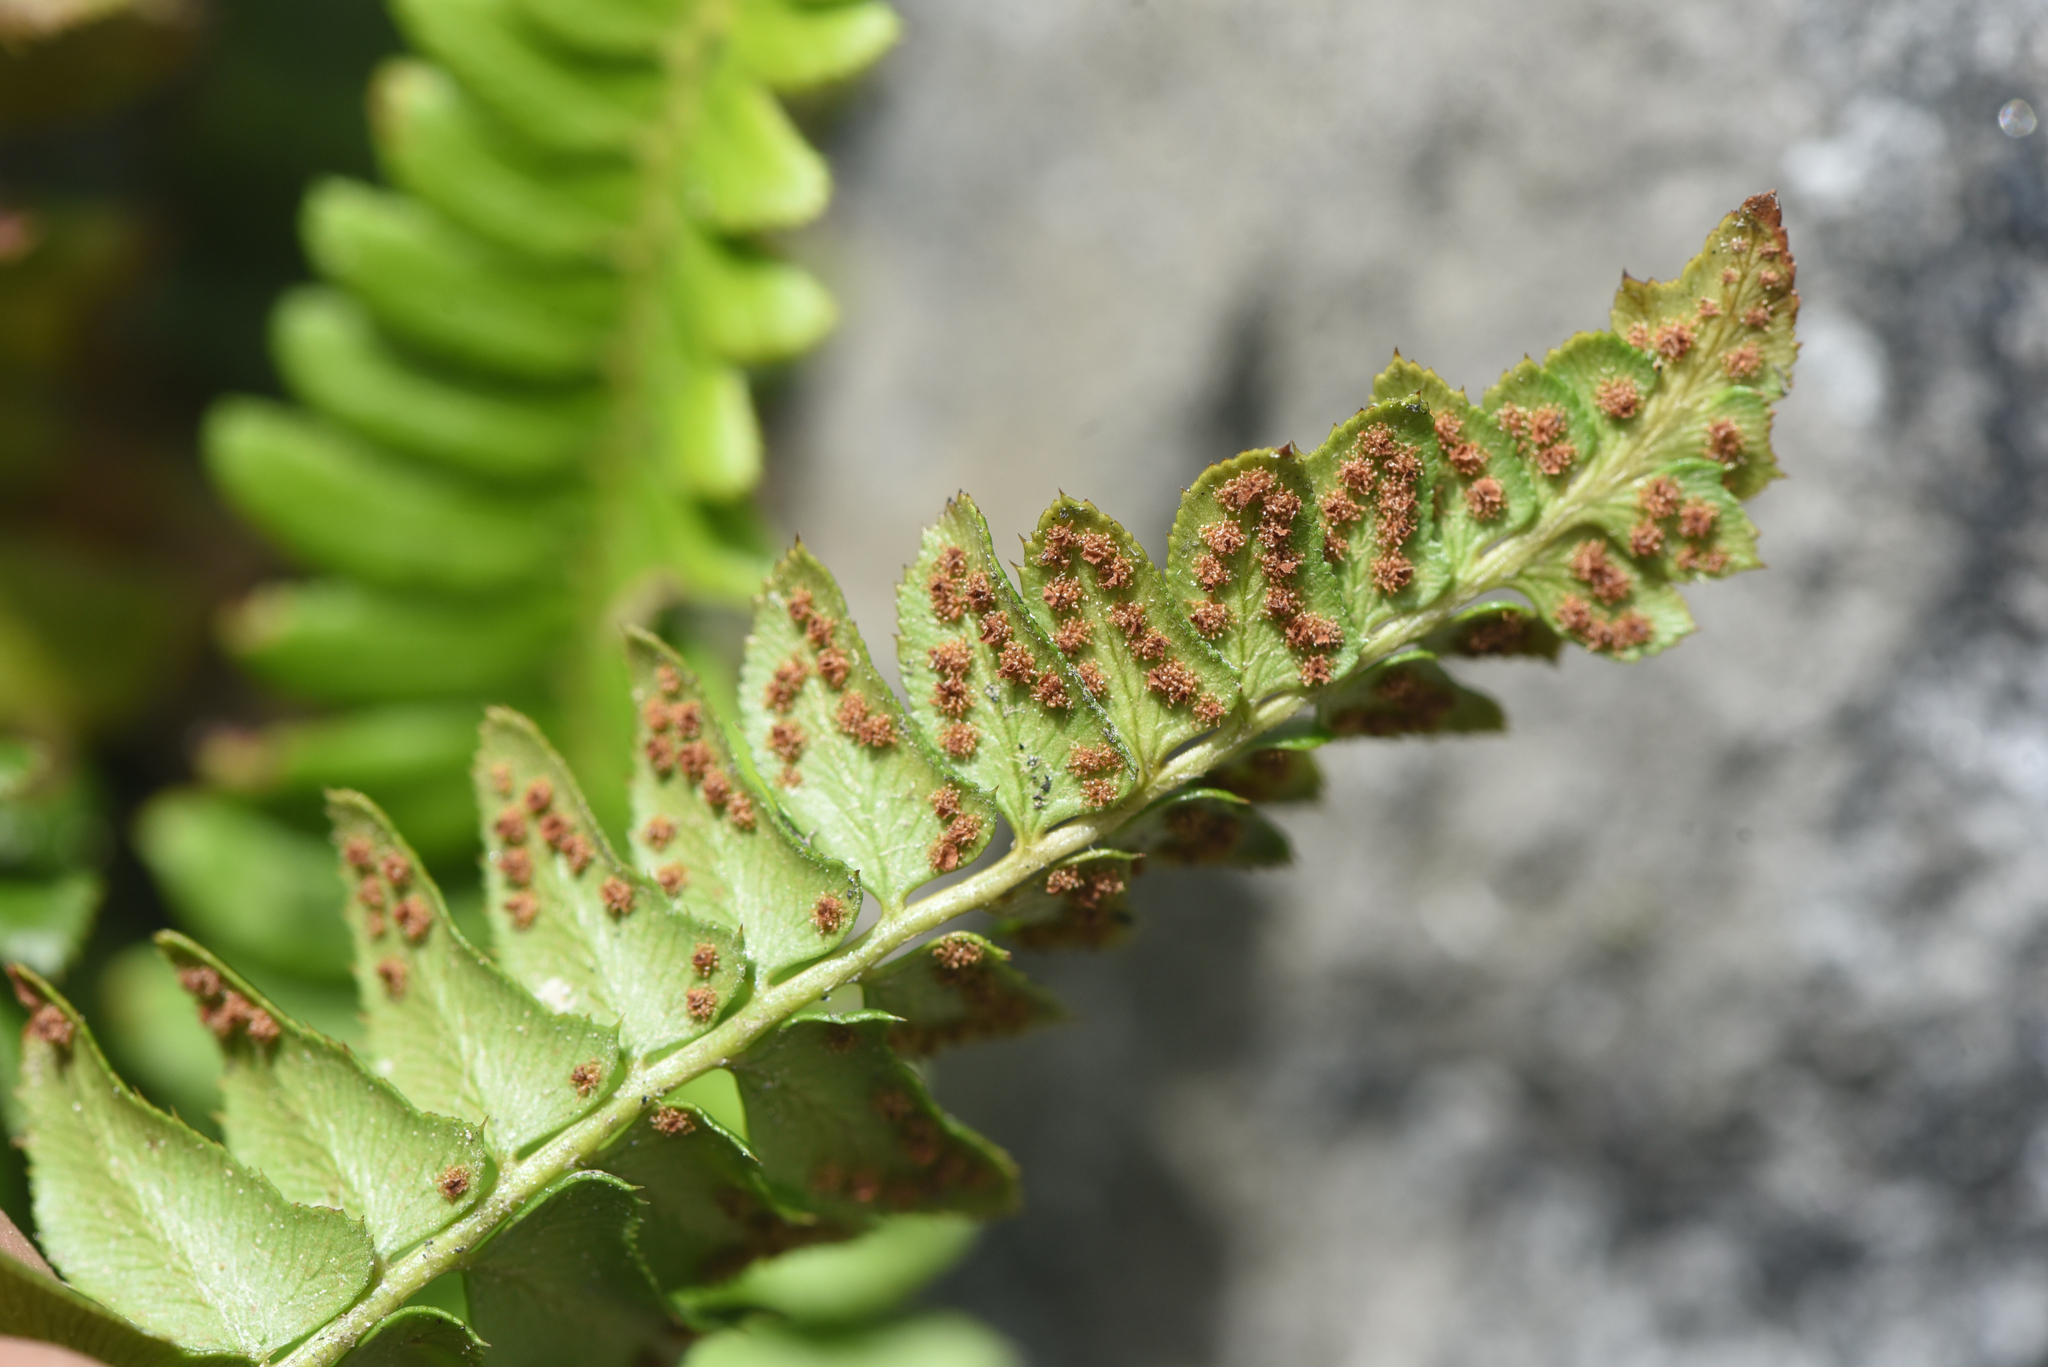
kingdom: Plantae
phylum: Tracheophyta
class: Polypodiopsida
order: Polypodiales
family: Dryopteridaceae
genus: Polystichum
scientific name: Polystichum lonchitis
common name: Holly fern
